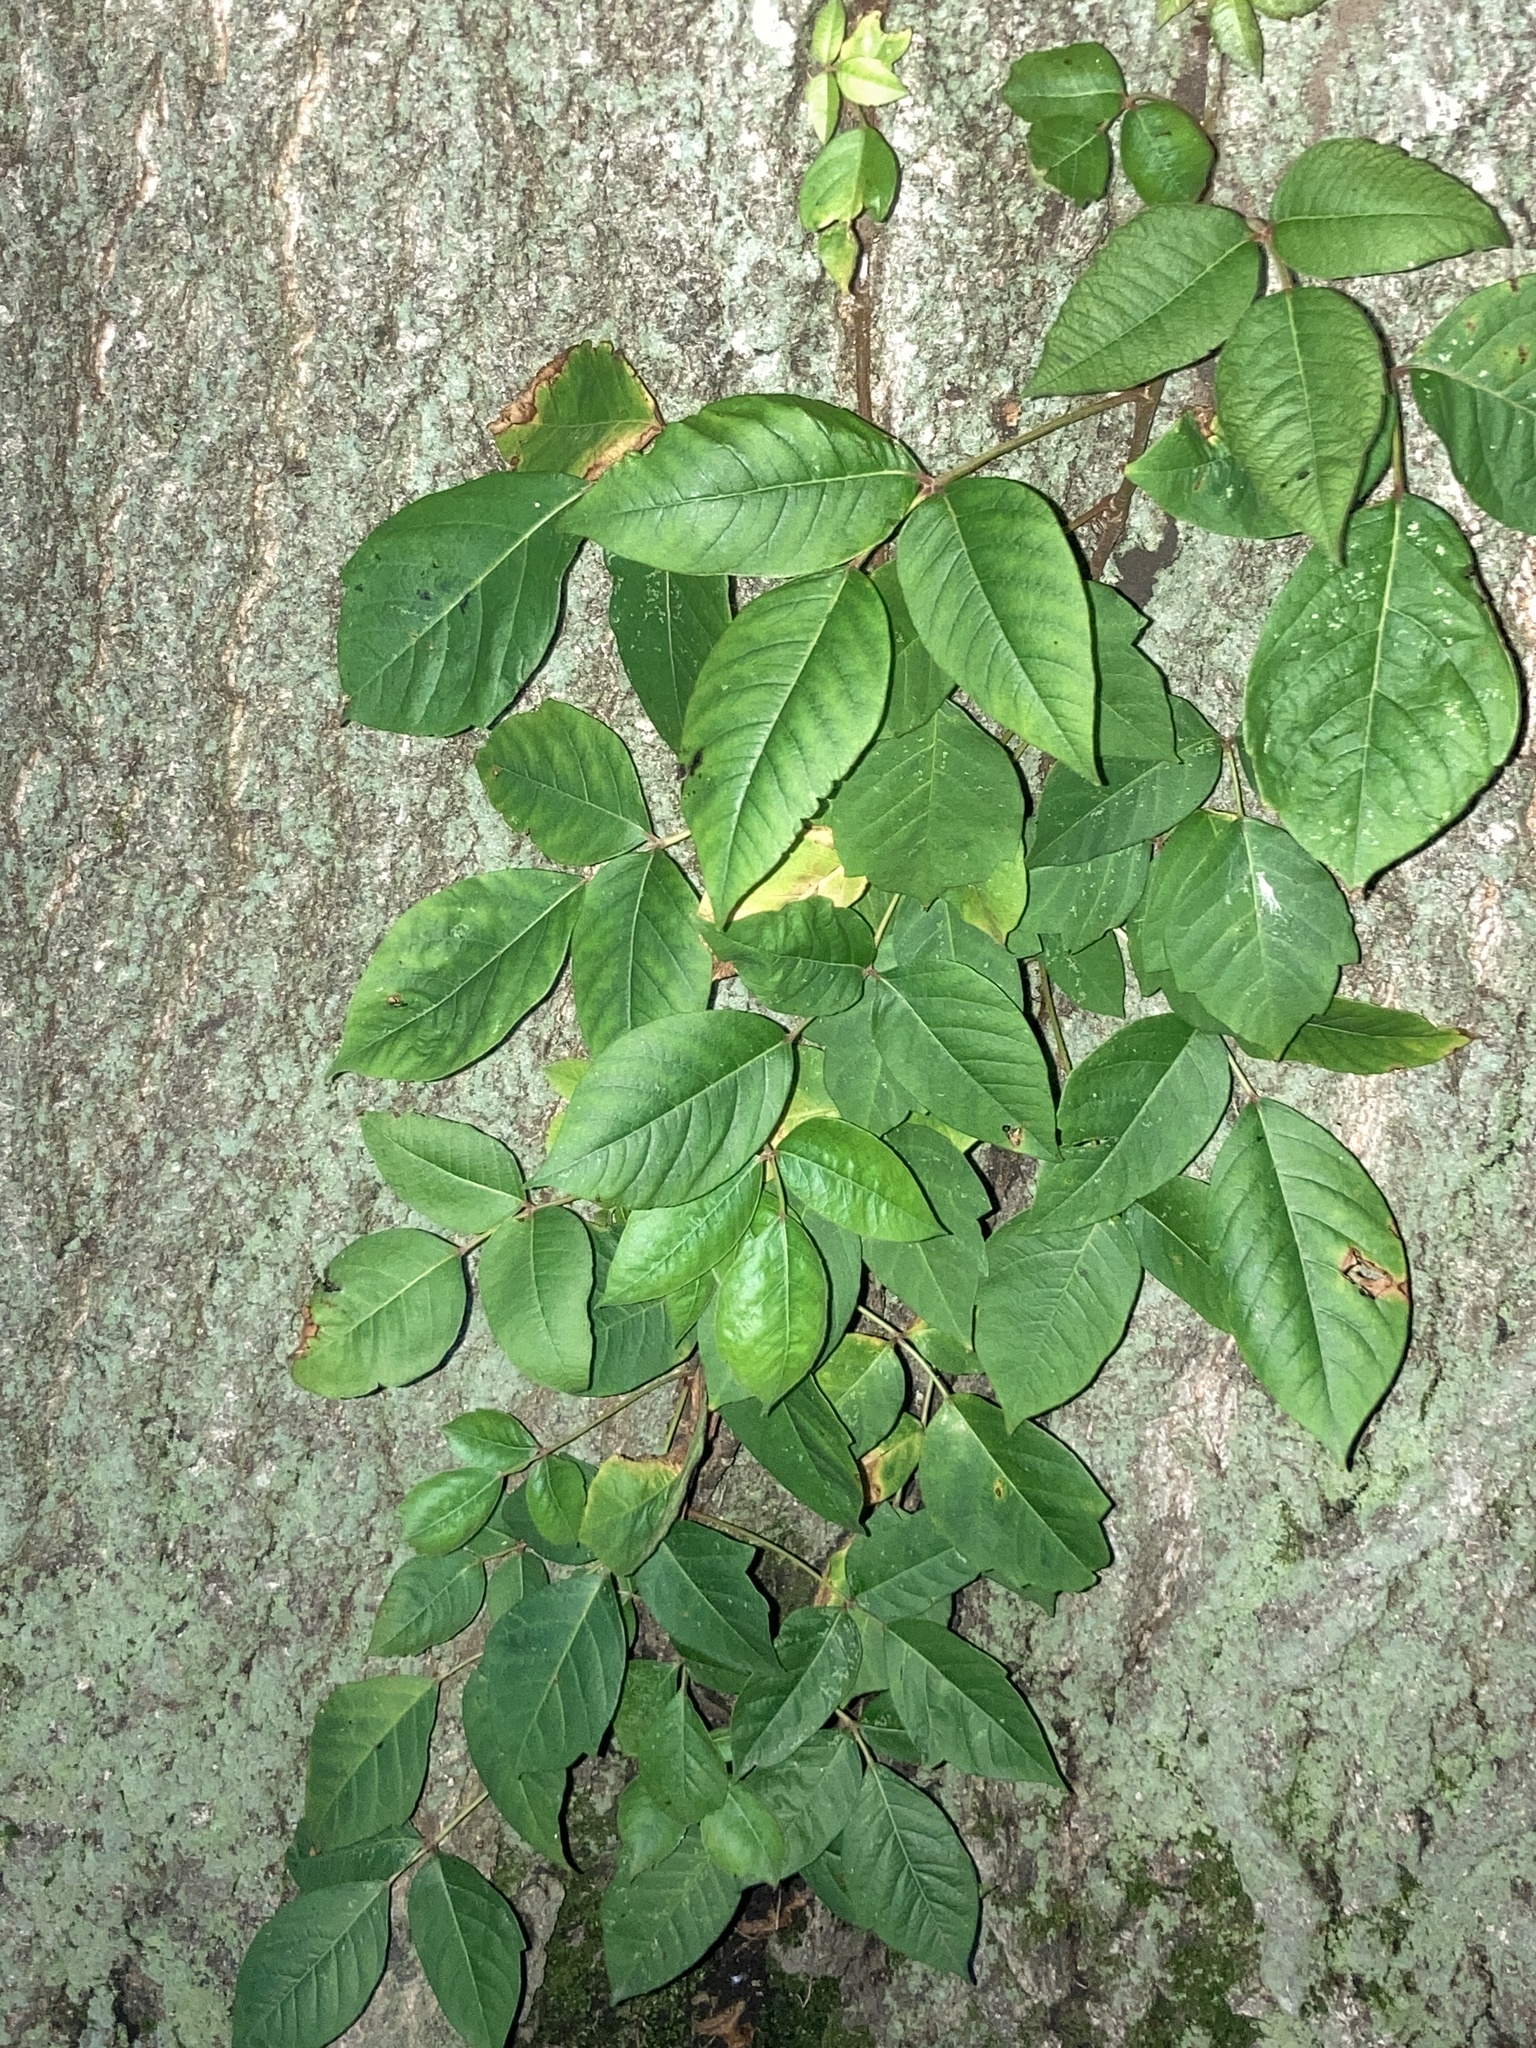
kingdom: Plantae
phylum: Tracheophyta
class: Magnoliopsida
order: Sapindales
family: Anacardiaceae
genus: Toxicodendron
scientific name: Toxicodendron radicans
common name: Poison ivy
